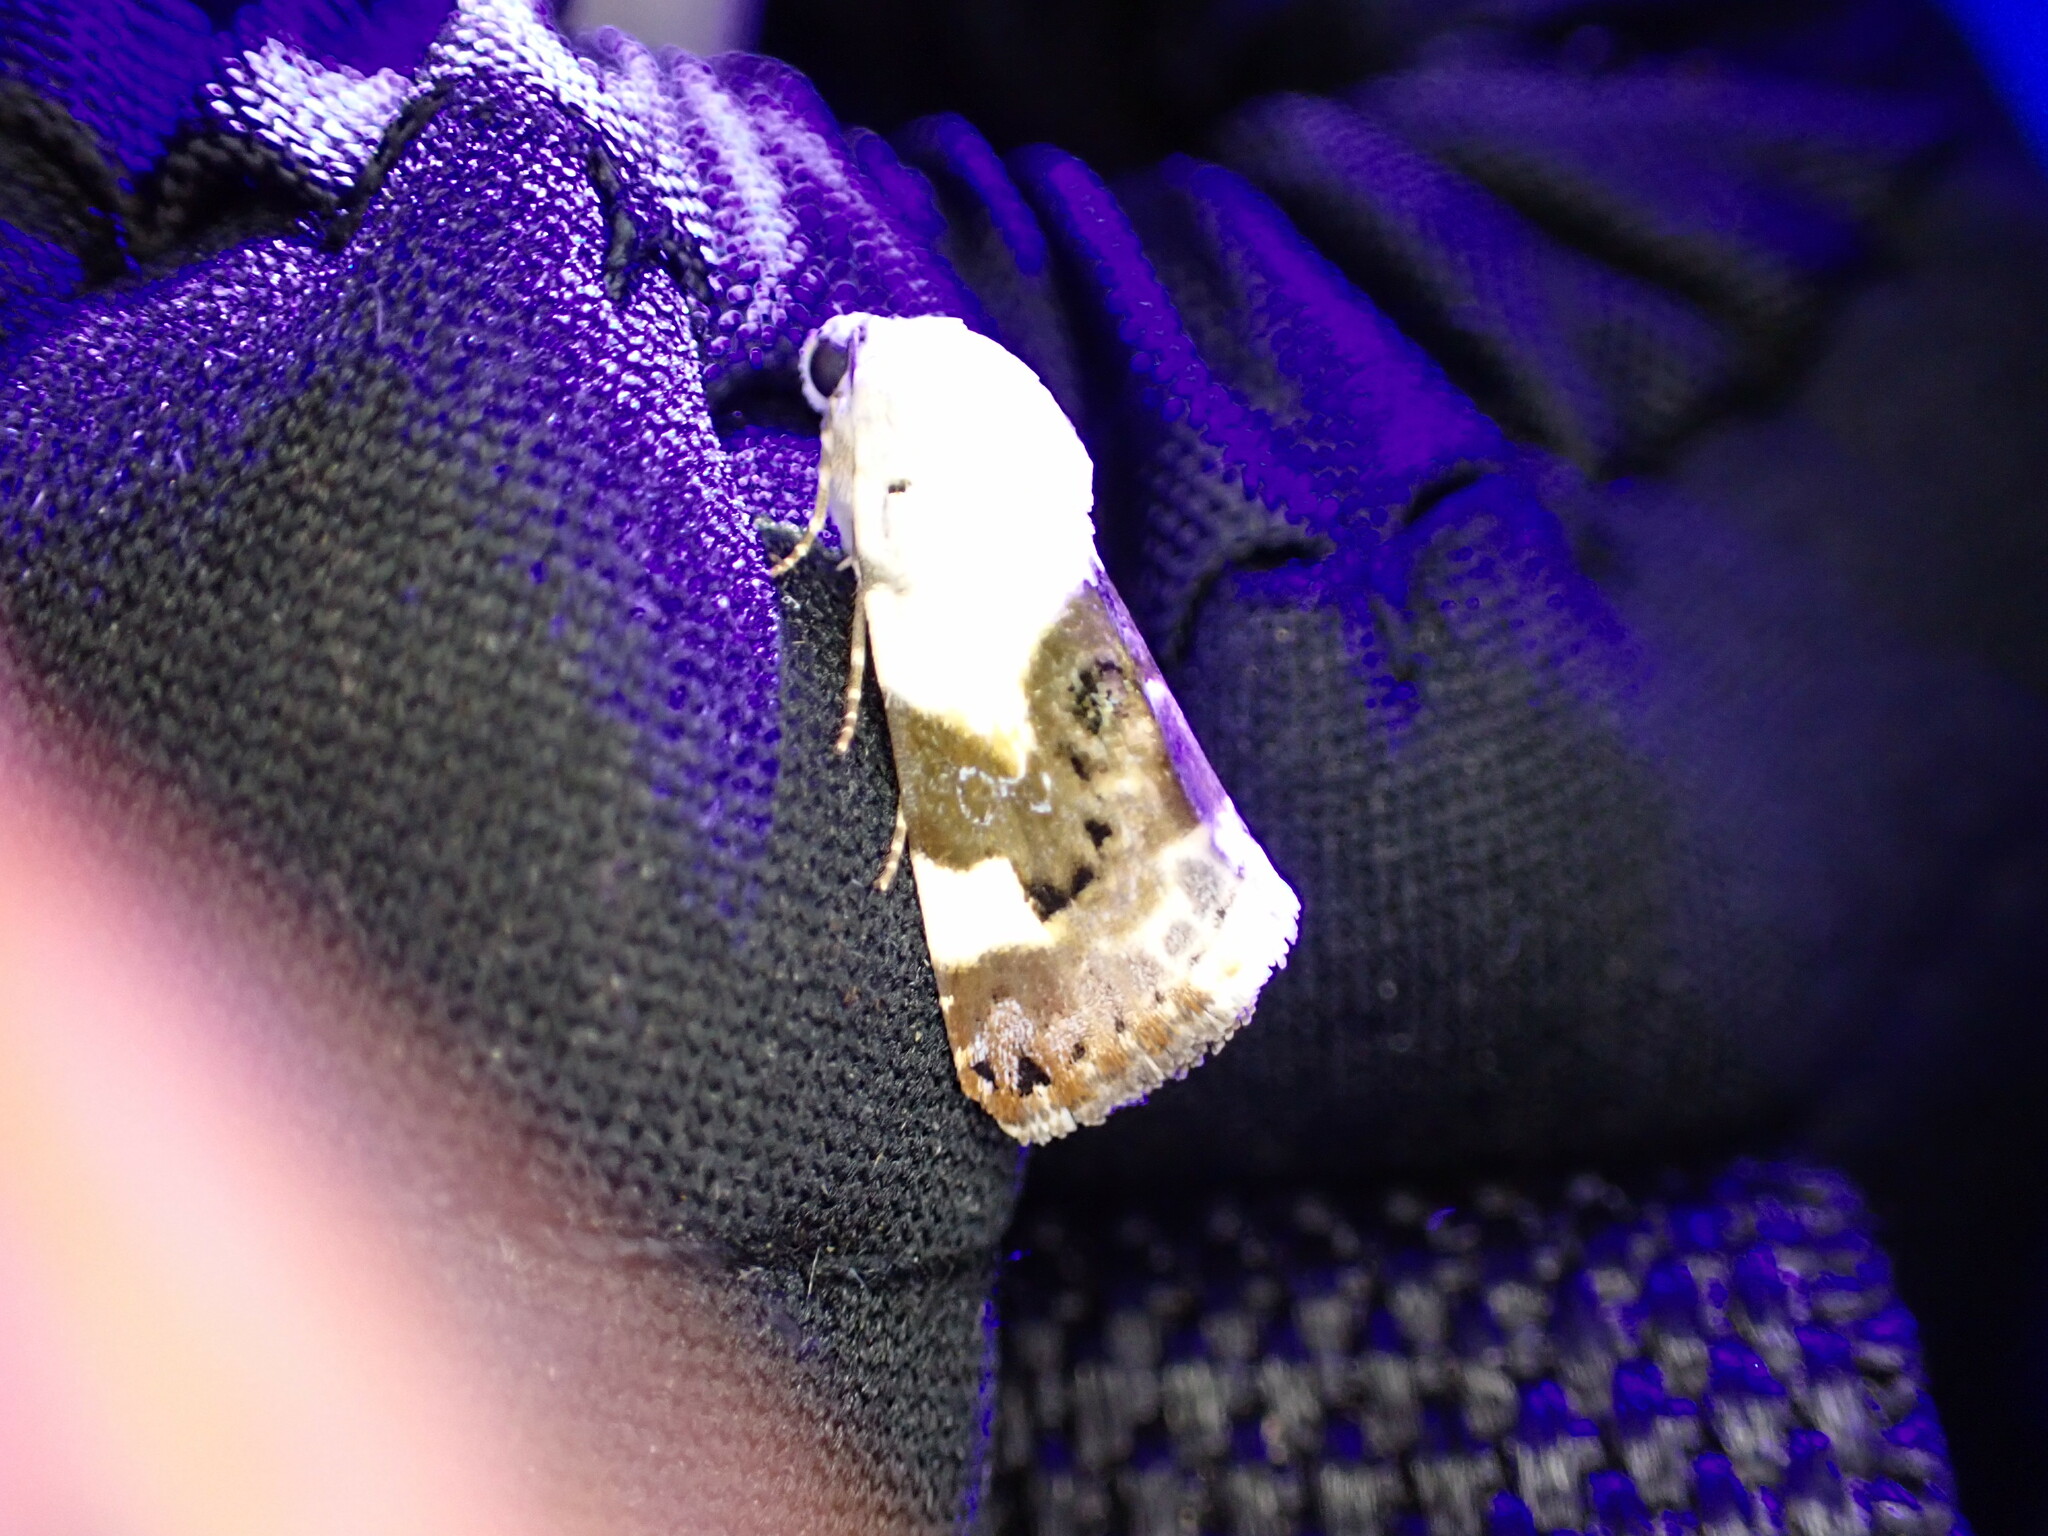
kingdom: Animalia
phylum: Arthropoda
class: Insecta
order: Lepidoptera
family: Noctuidae
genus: Acontia
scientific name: Acontia lucida
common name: Pale shoulder
